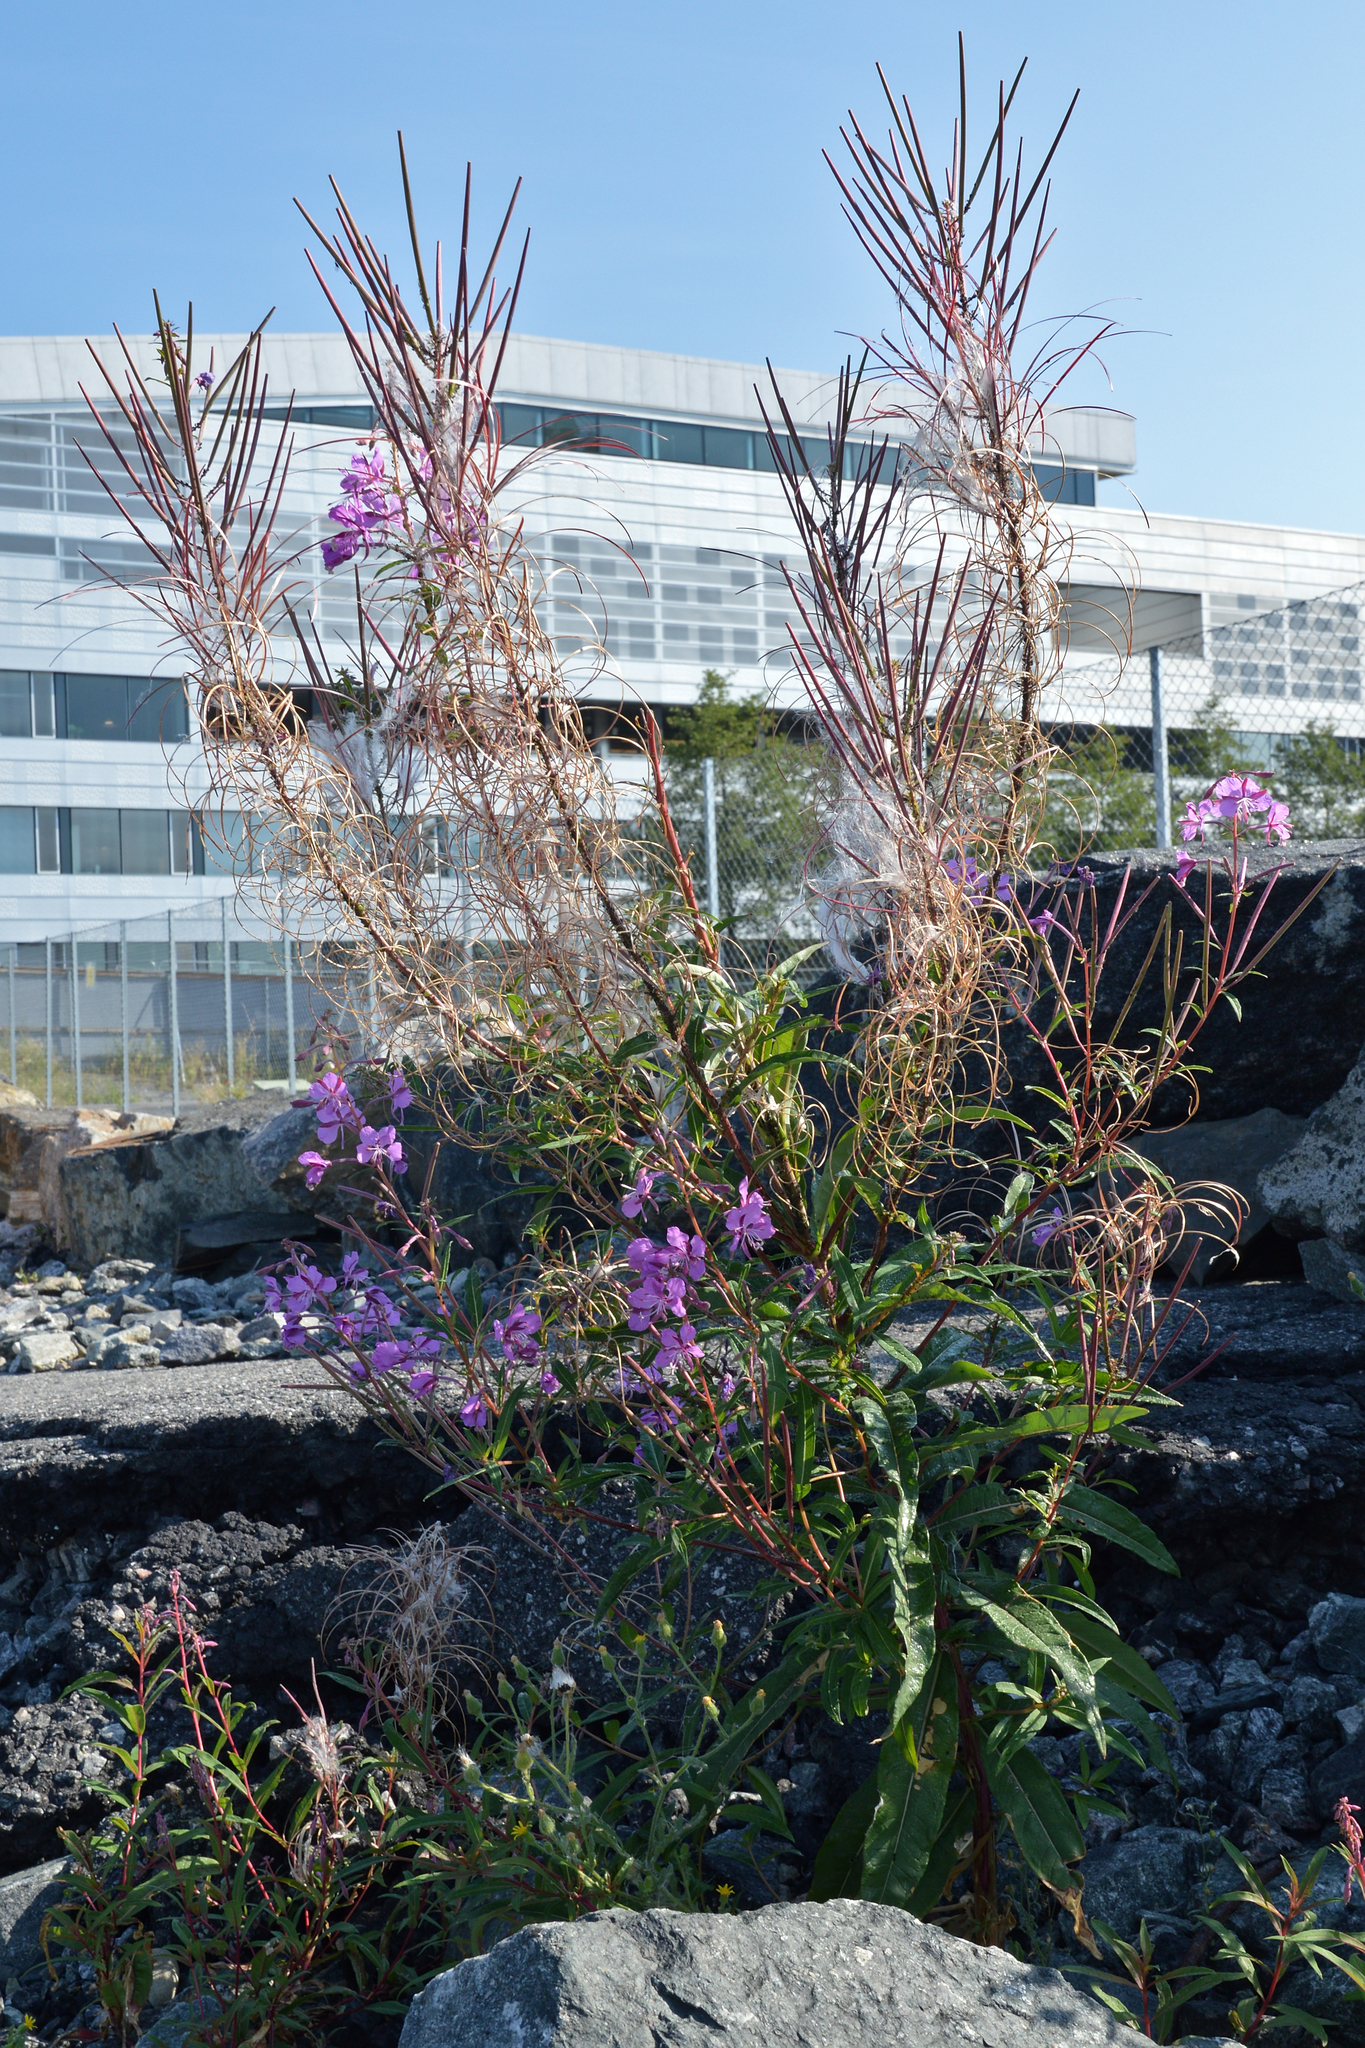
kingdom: Plantae
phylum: Tracheophyta
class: Magnoliopsida
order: Myrtales
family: Onagraceae
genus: Chamaenerion
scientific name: Chamaenerion angustifolium
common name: Fireweed
